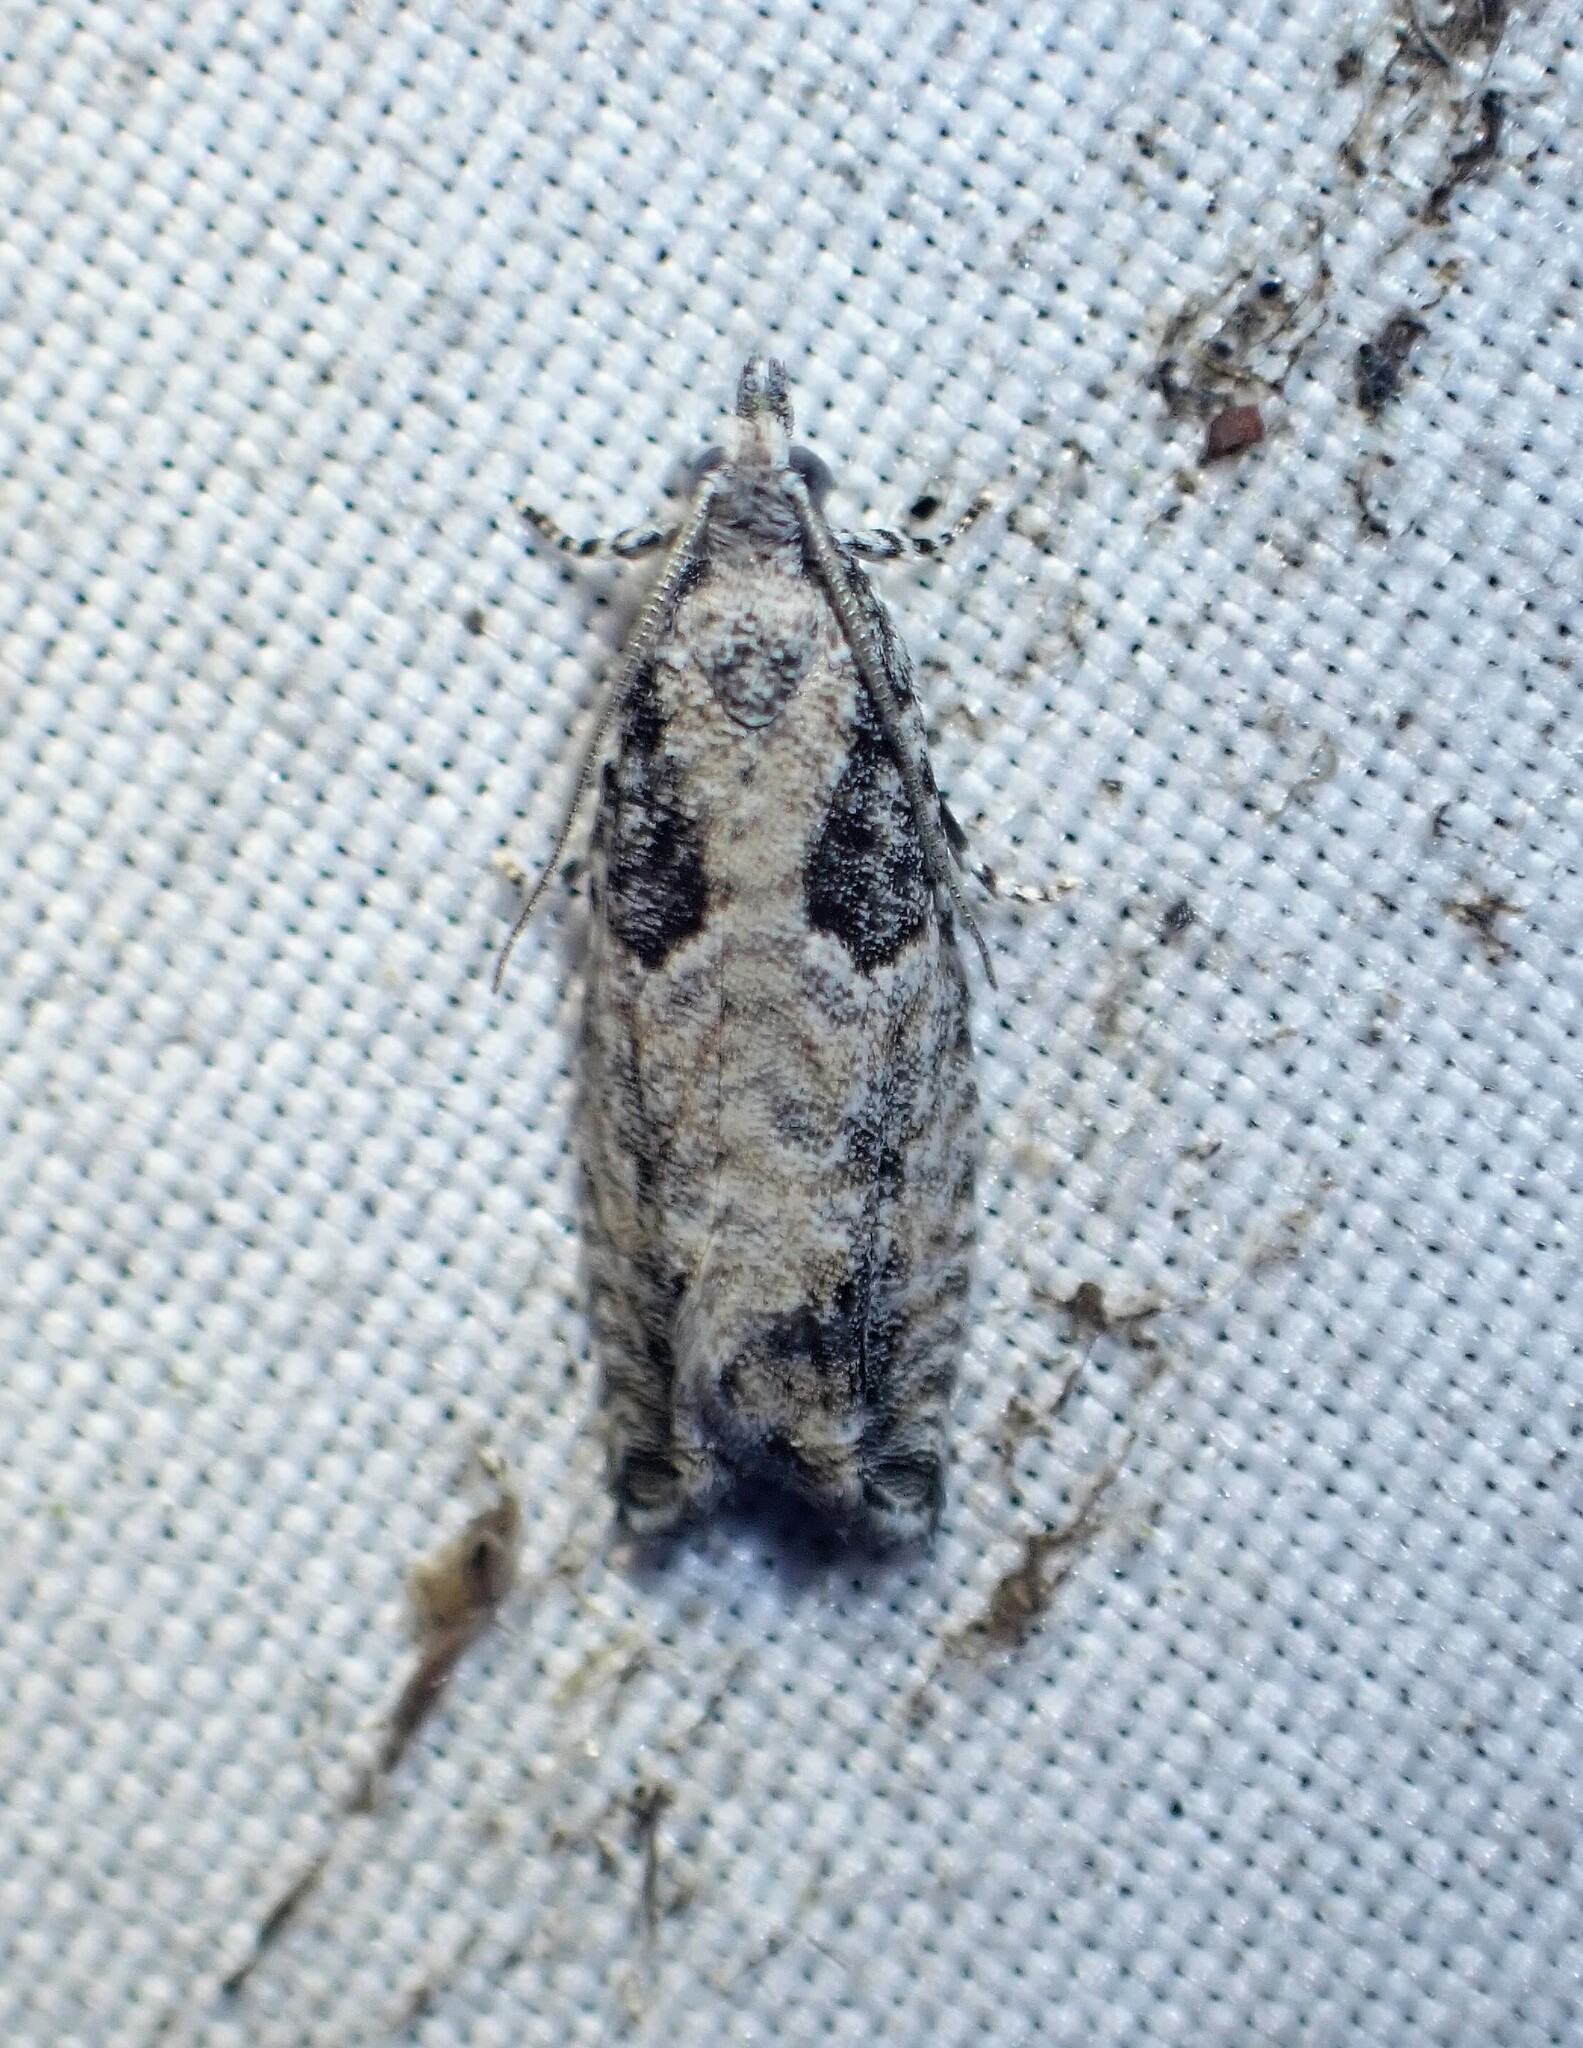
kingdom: Animalia
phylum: Arthropoda
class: Insecta
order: Lepidoptera
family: Tortricidae
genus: Epinotia
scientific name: Epinotia cinereana
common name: Grey aspen bell
